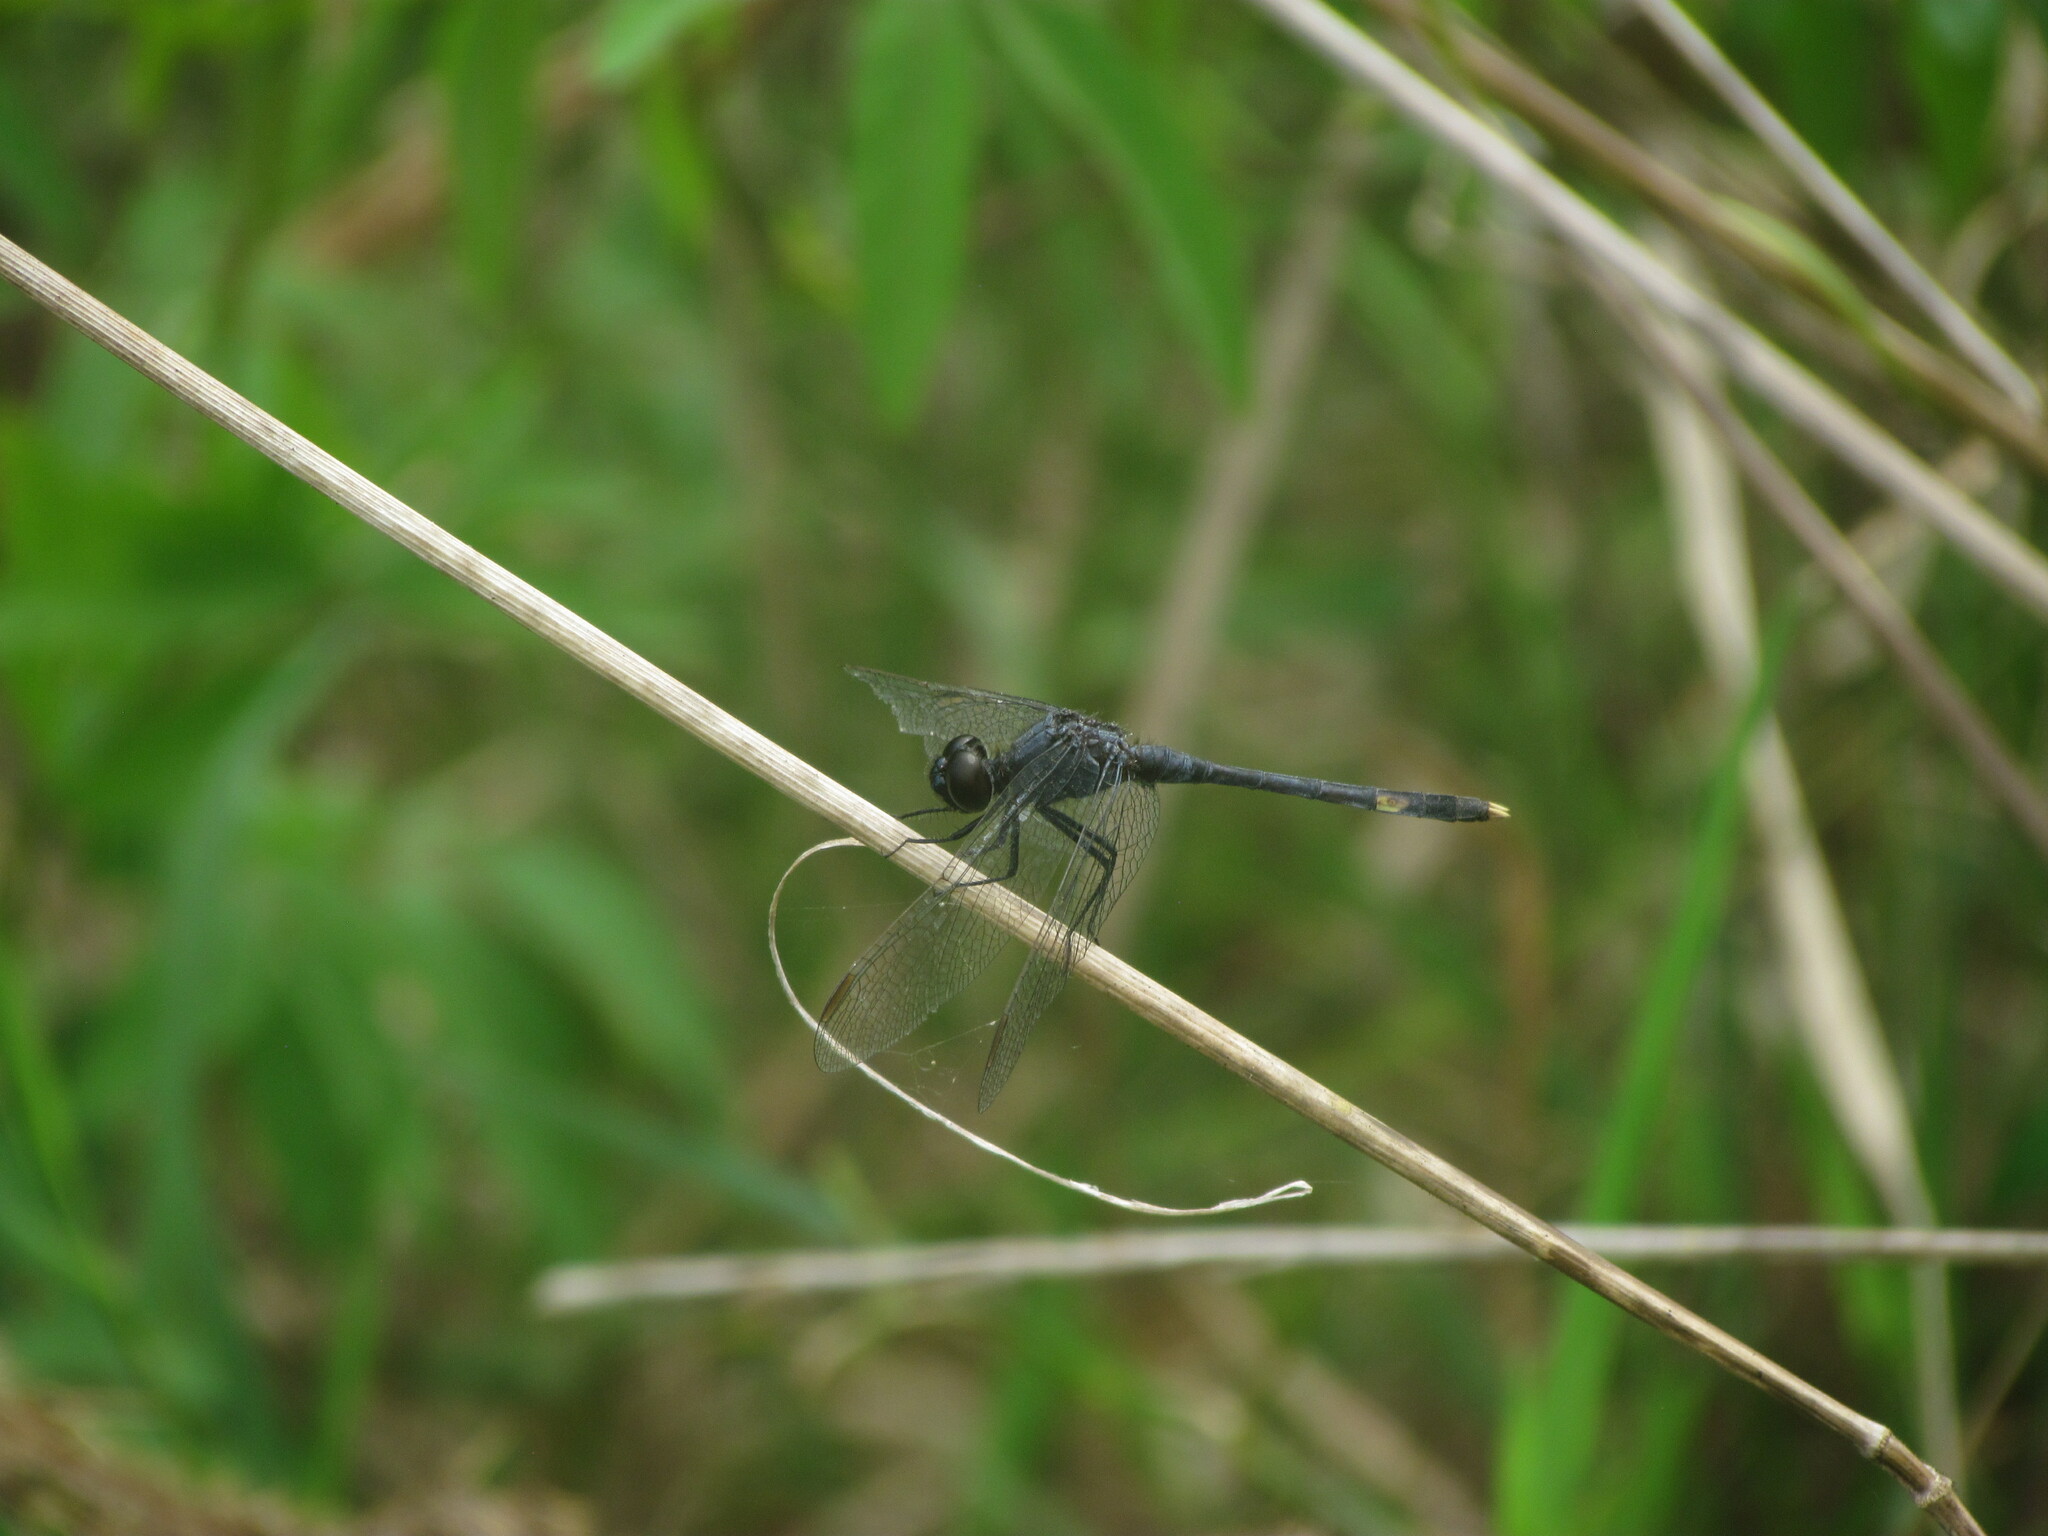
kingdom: Animalia
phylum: Arthropoda
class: Insecta
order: Odonata
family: Libellulidae
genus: Erythrodiplax
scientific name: Erythrodiplax nigricans
